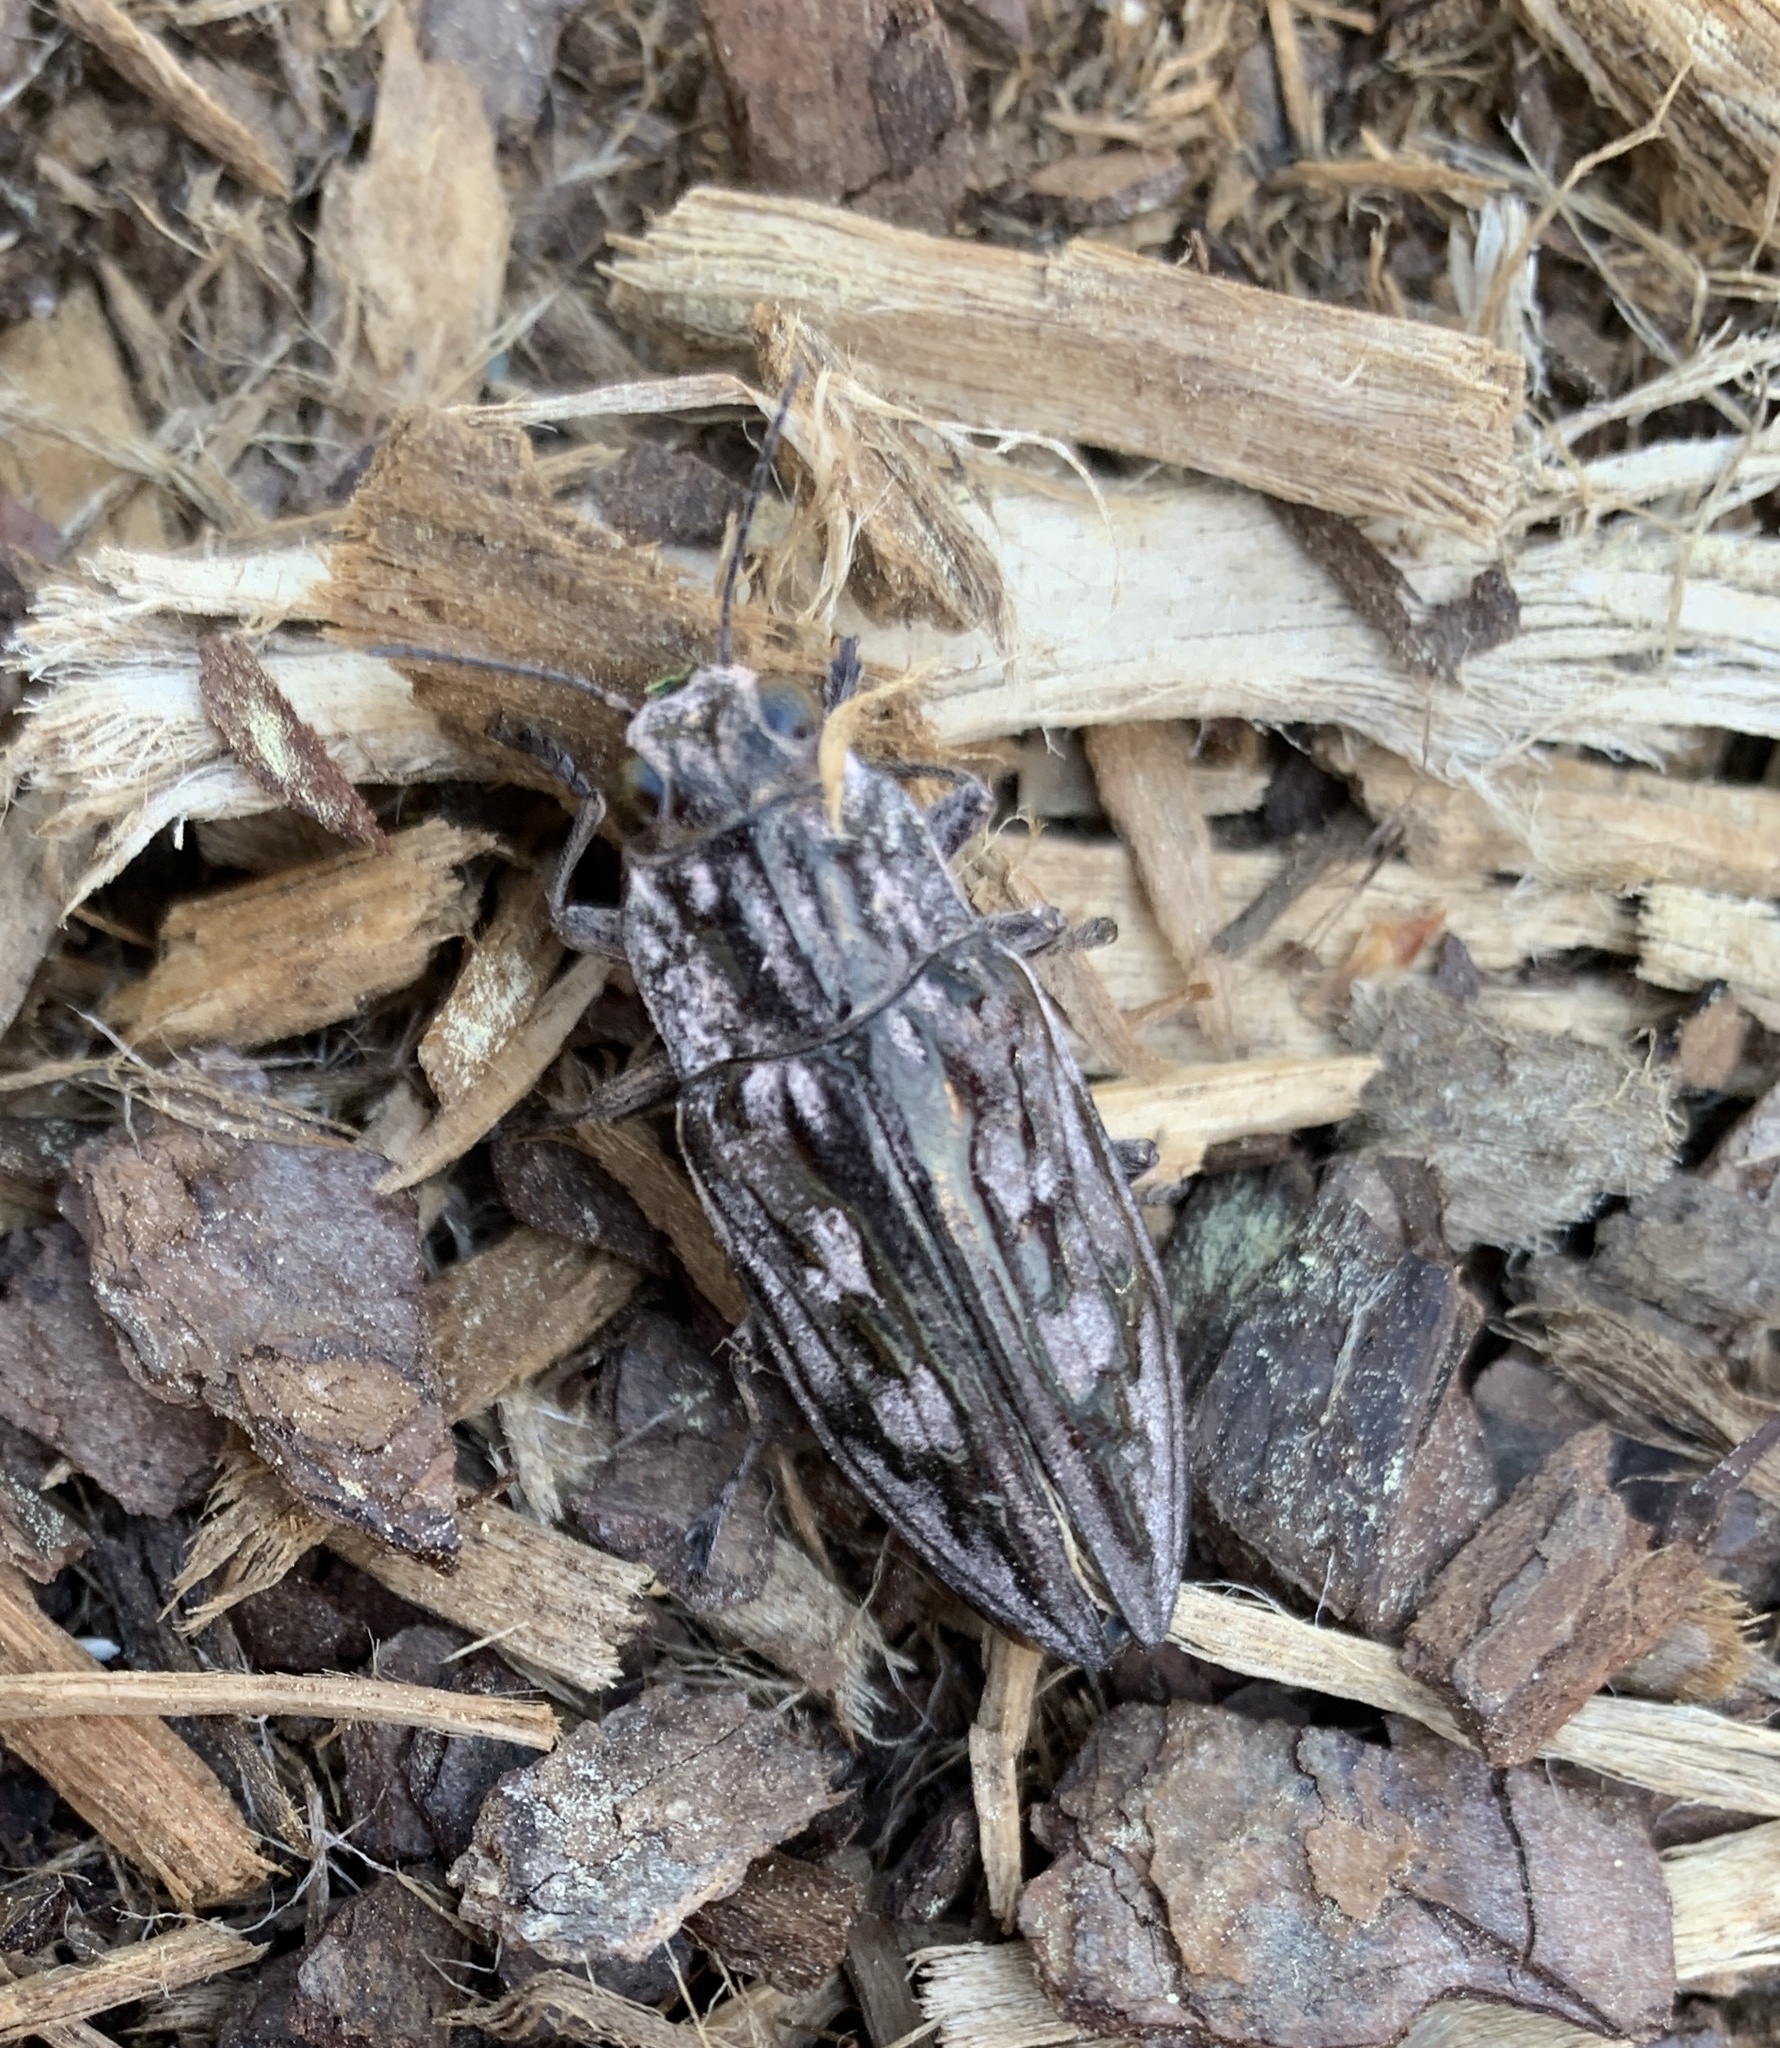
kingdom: Animalia
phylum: Arthropoda
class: Insecta
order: Coleoptera
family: Buprestidae
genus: Chalcophora
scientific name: Chalcophora virginiensis
